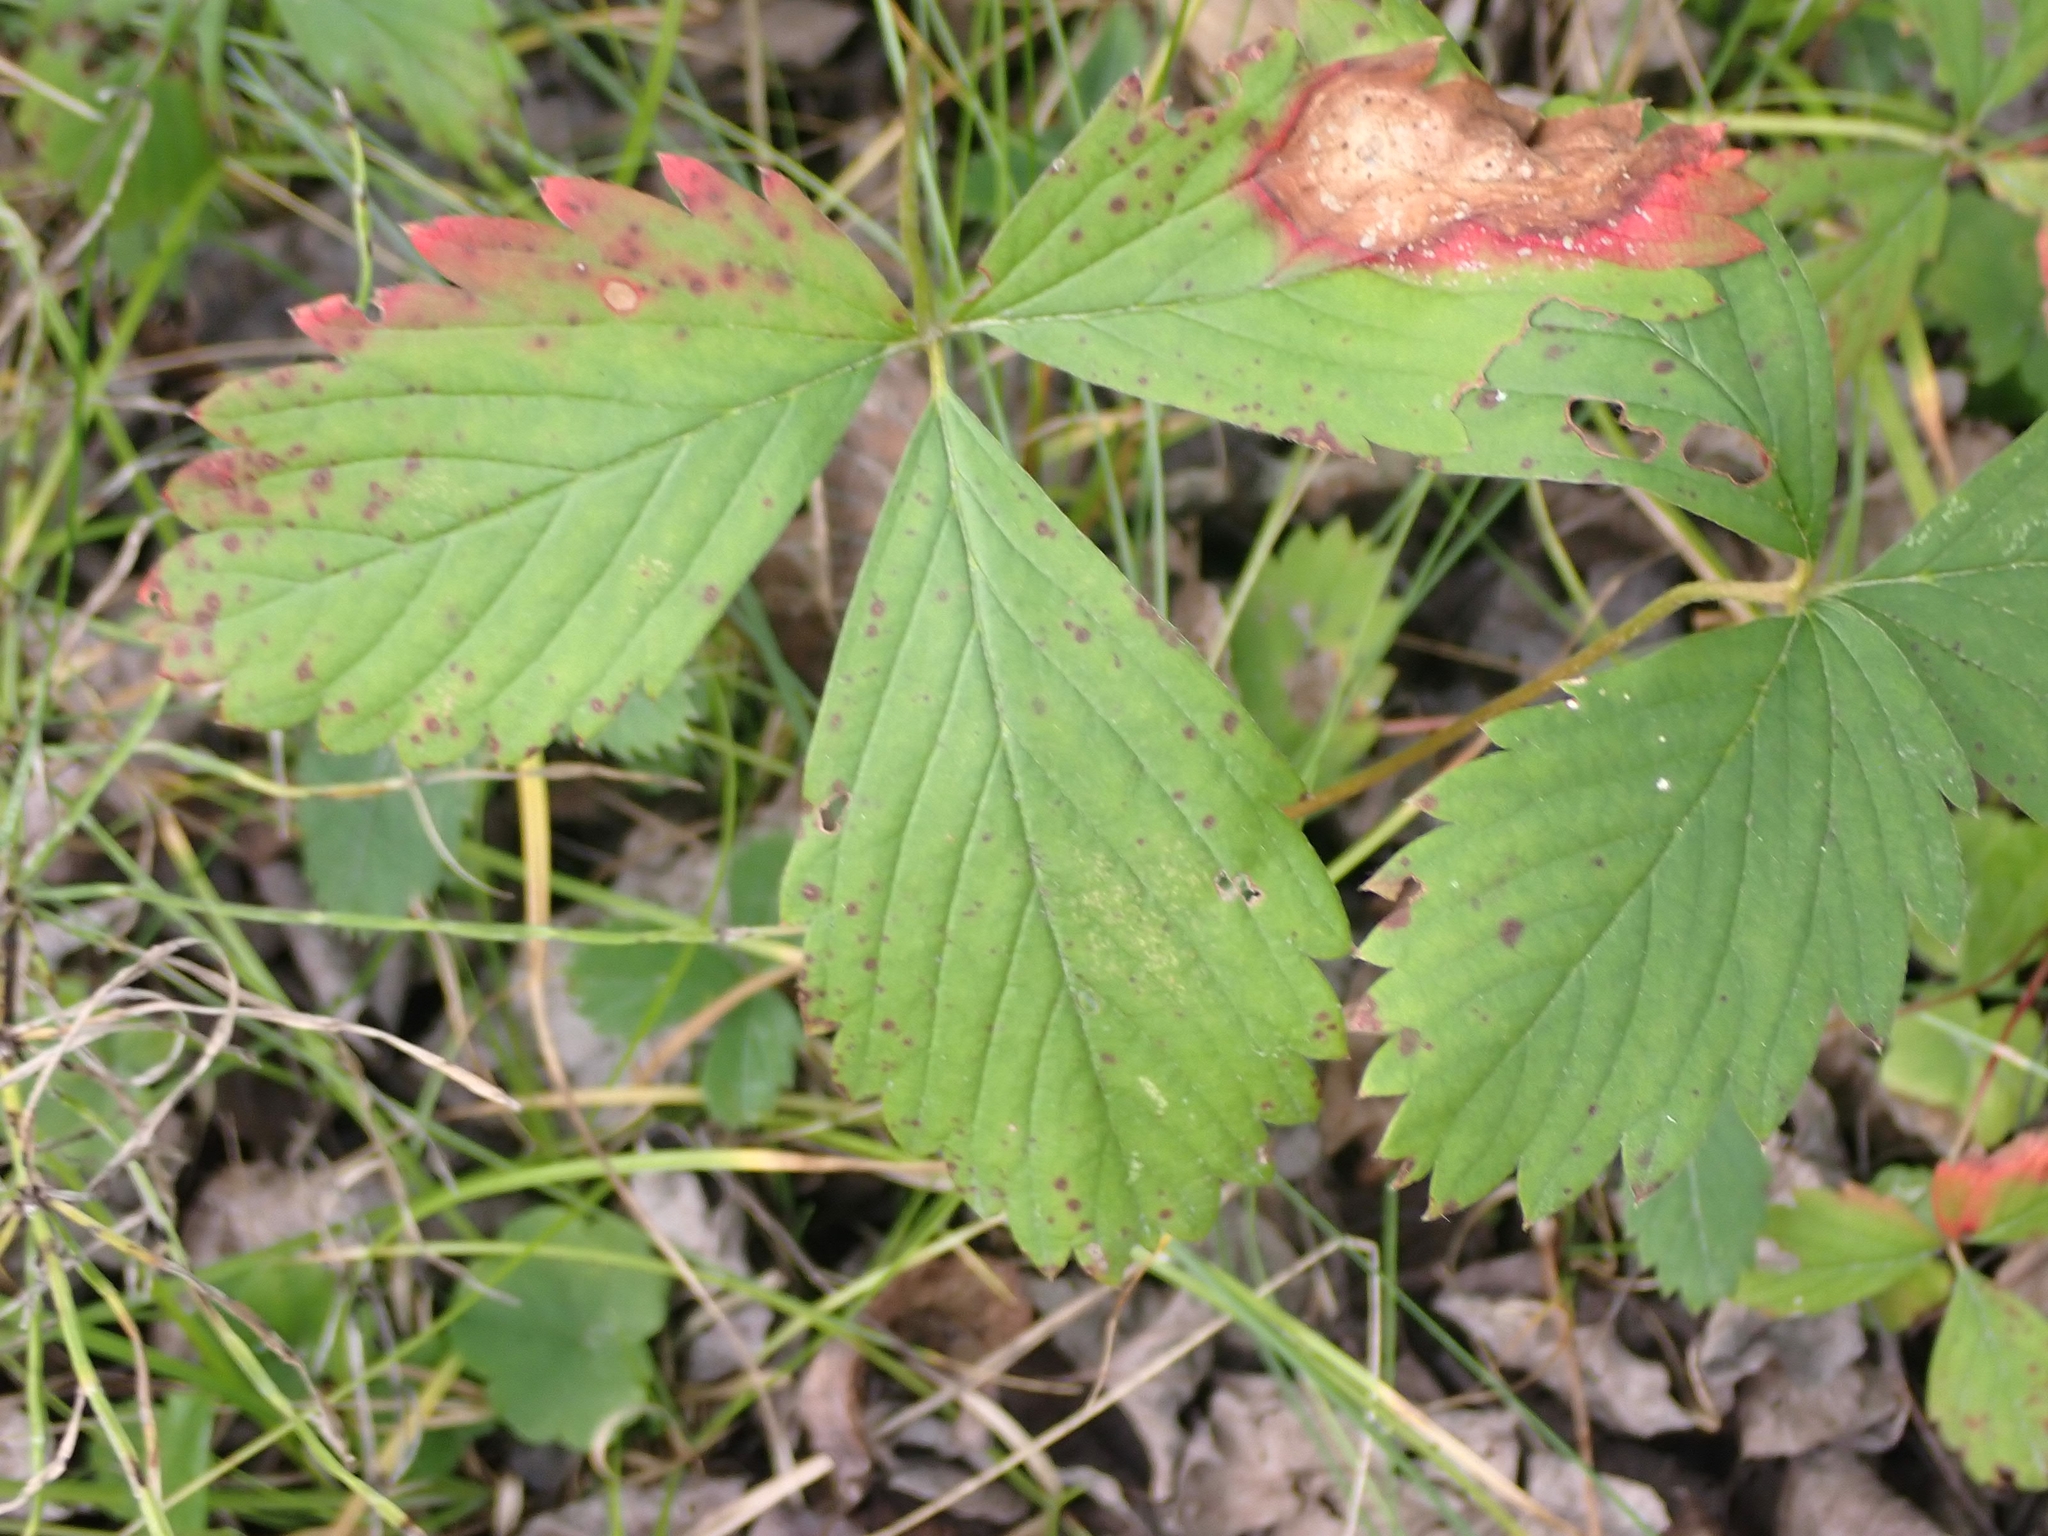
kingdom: Plantae
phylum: Tracheophyta
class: Magnoliopsida
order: Rosales
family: Rosaceae
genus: Fragaria
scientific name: Fragaria virginiana
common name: Thickleaved wild strawberry
